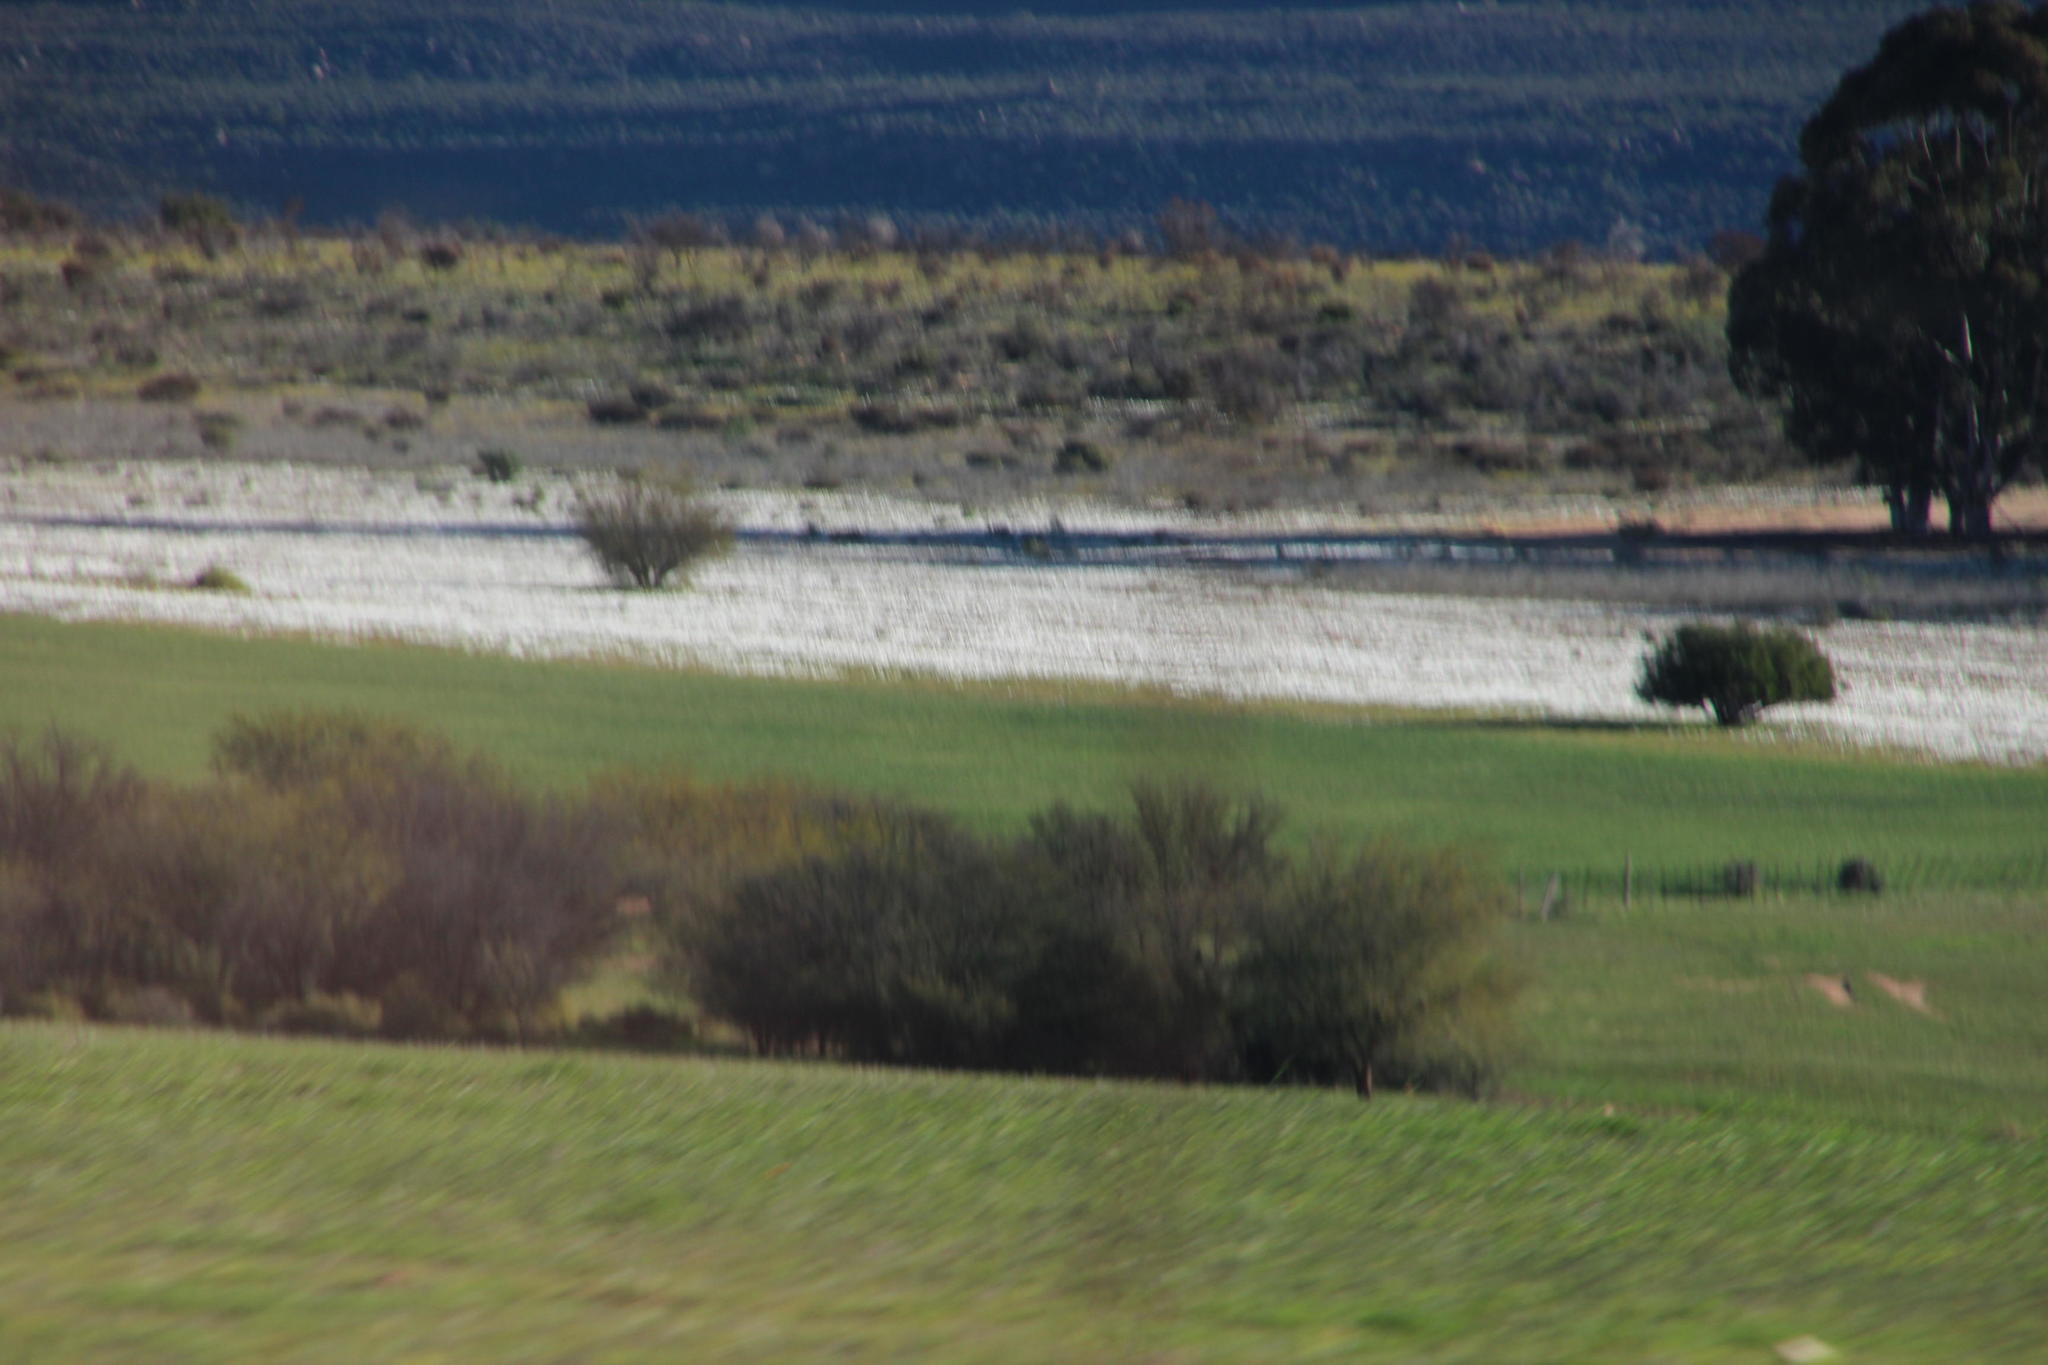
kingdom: Plantae
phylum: Tracheophyta
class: Magnoliopsida
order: Asterales
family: Asteraceae
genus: Dimorphotheca
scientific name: Dimorphotheca pluvialis
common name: Weather prophet
